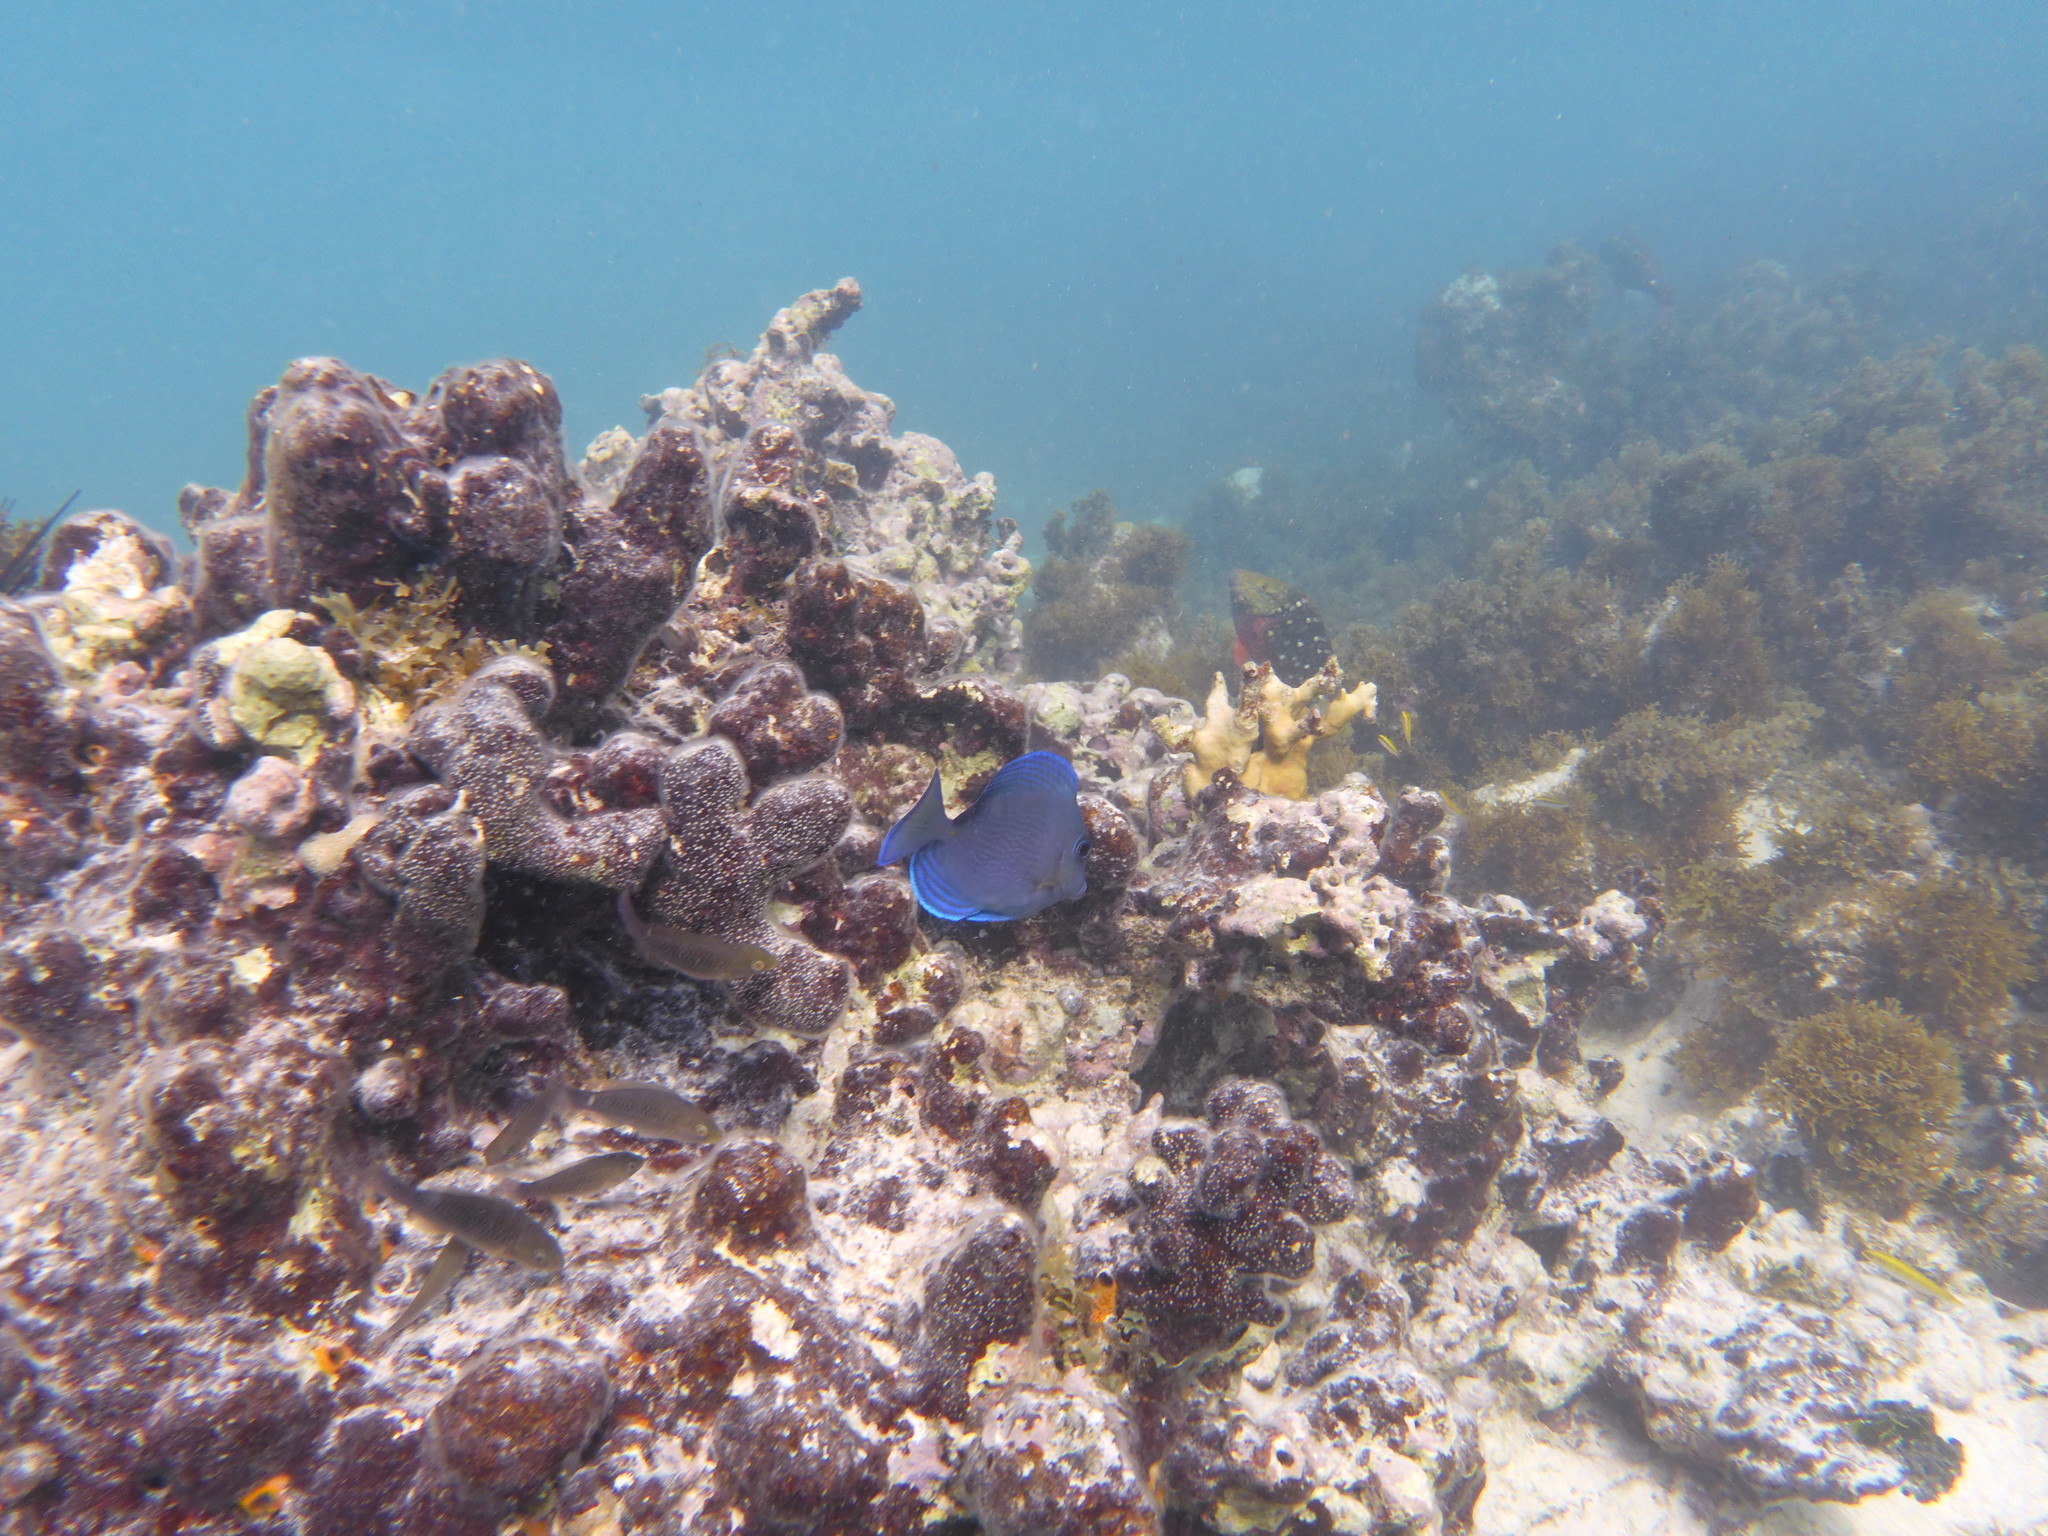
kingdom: Animalia
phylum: Chordata
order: Perciformes
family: Acanthuridae
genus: Acanthurus
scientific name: Acanthurus coeruleus
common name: Blue tang
